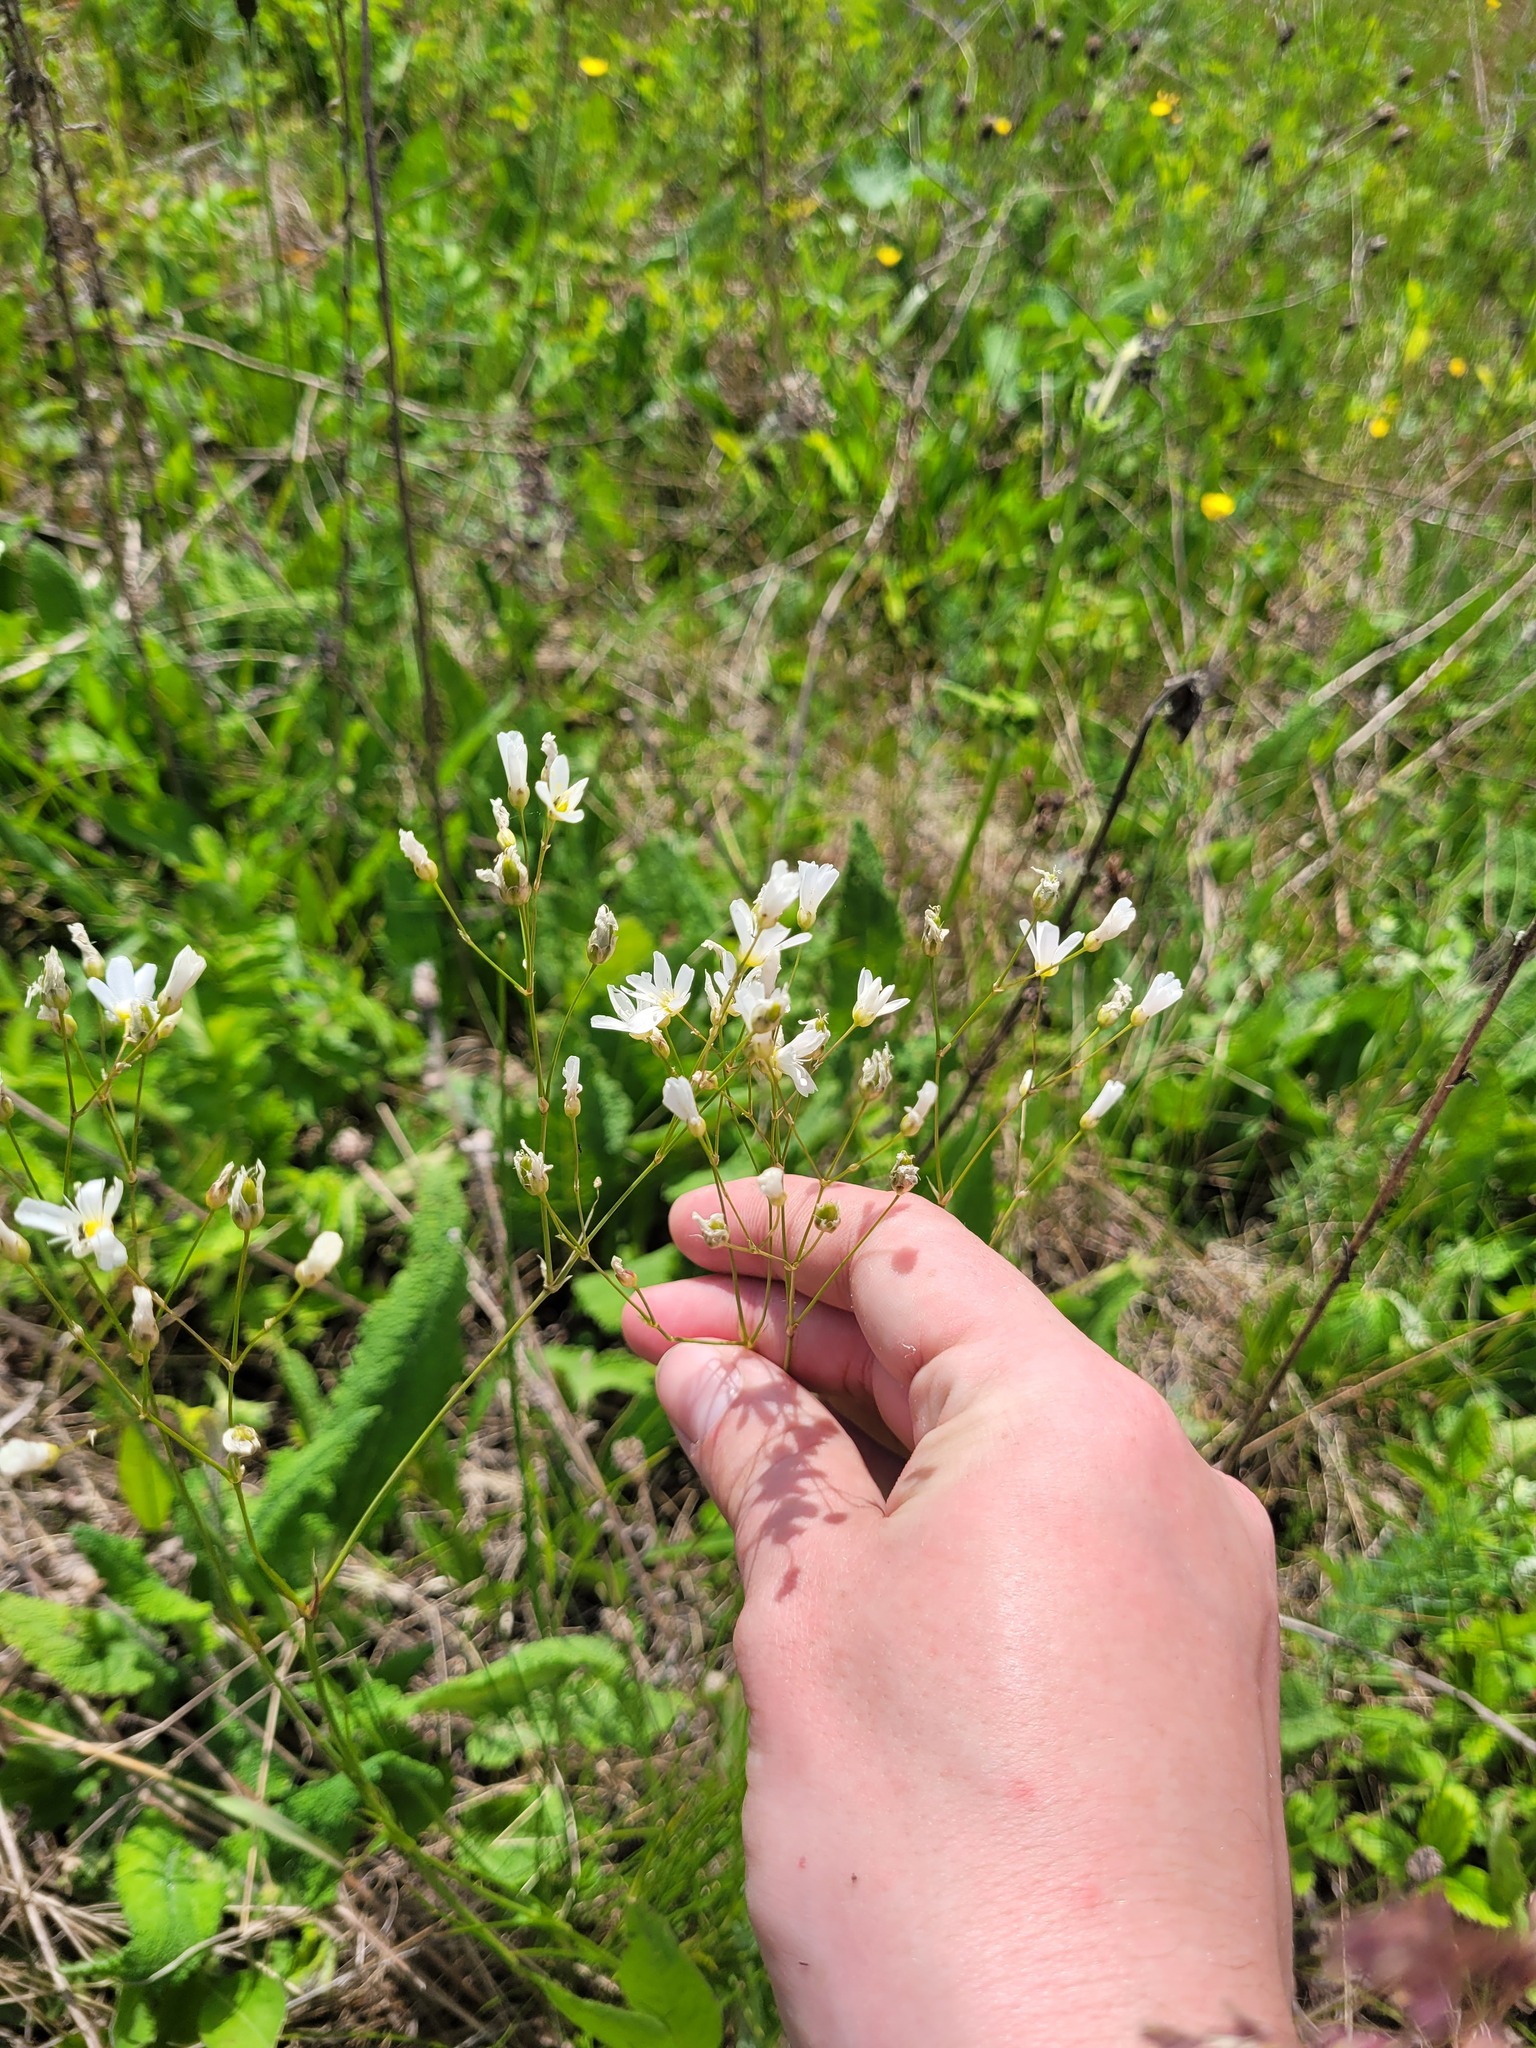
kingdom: Plantae
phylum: Tracheophyta
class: Magnoliopsida
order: Caryophyllales
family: Caryophyllaceae
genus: Eremogone
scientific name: Eremogone saxatilis
